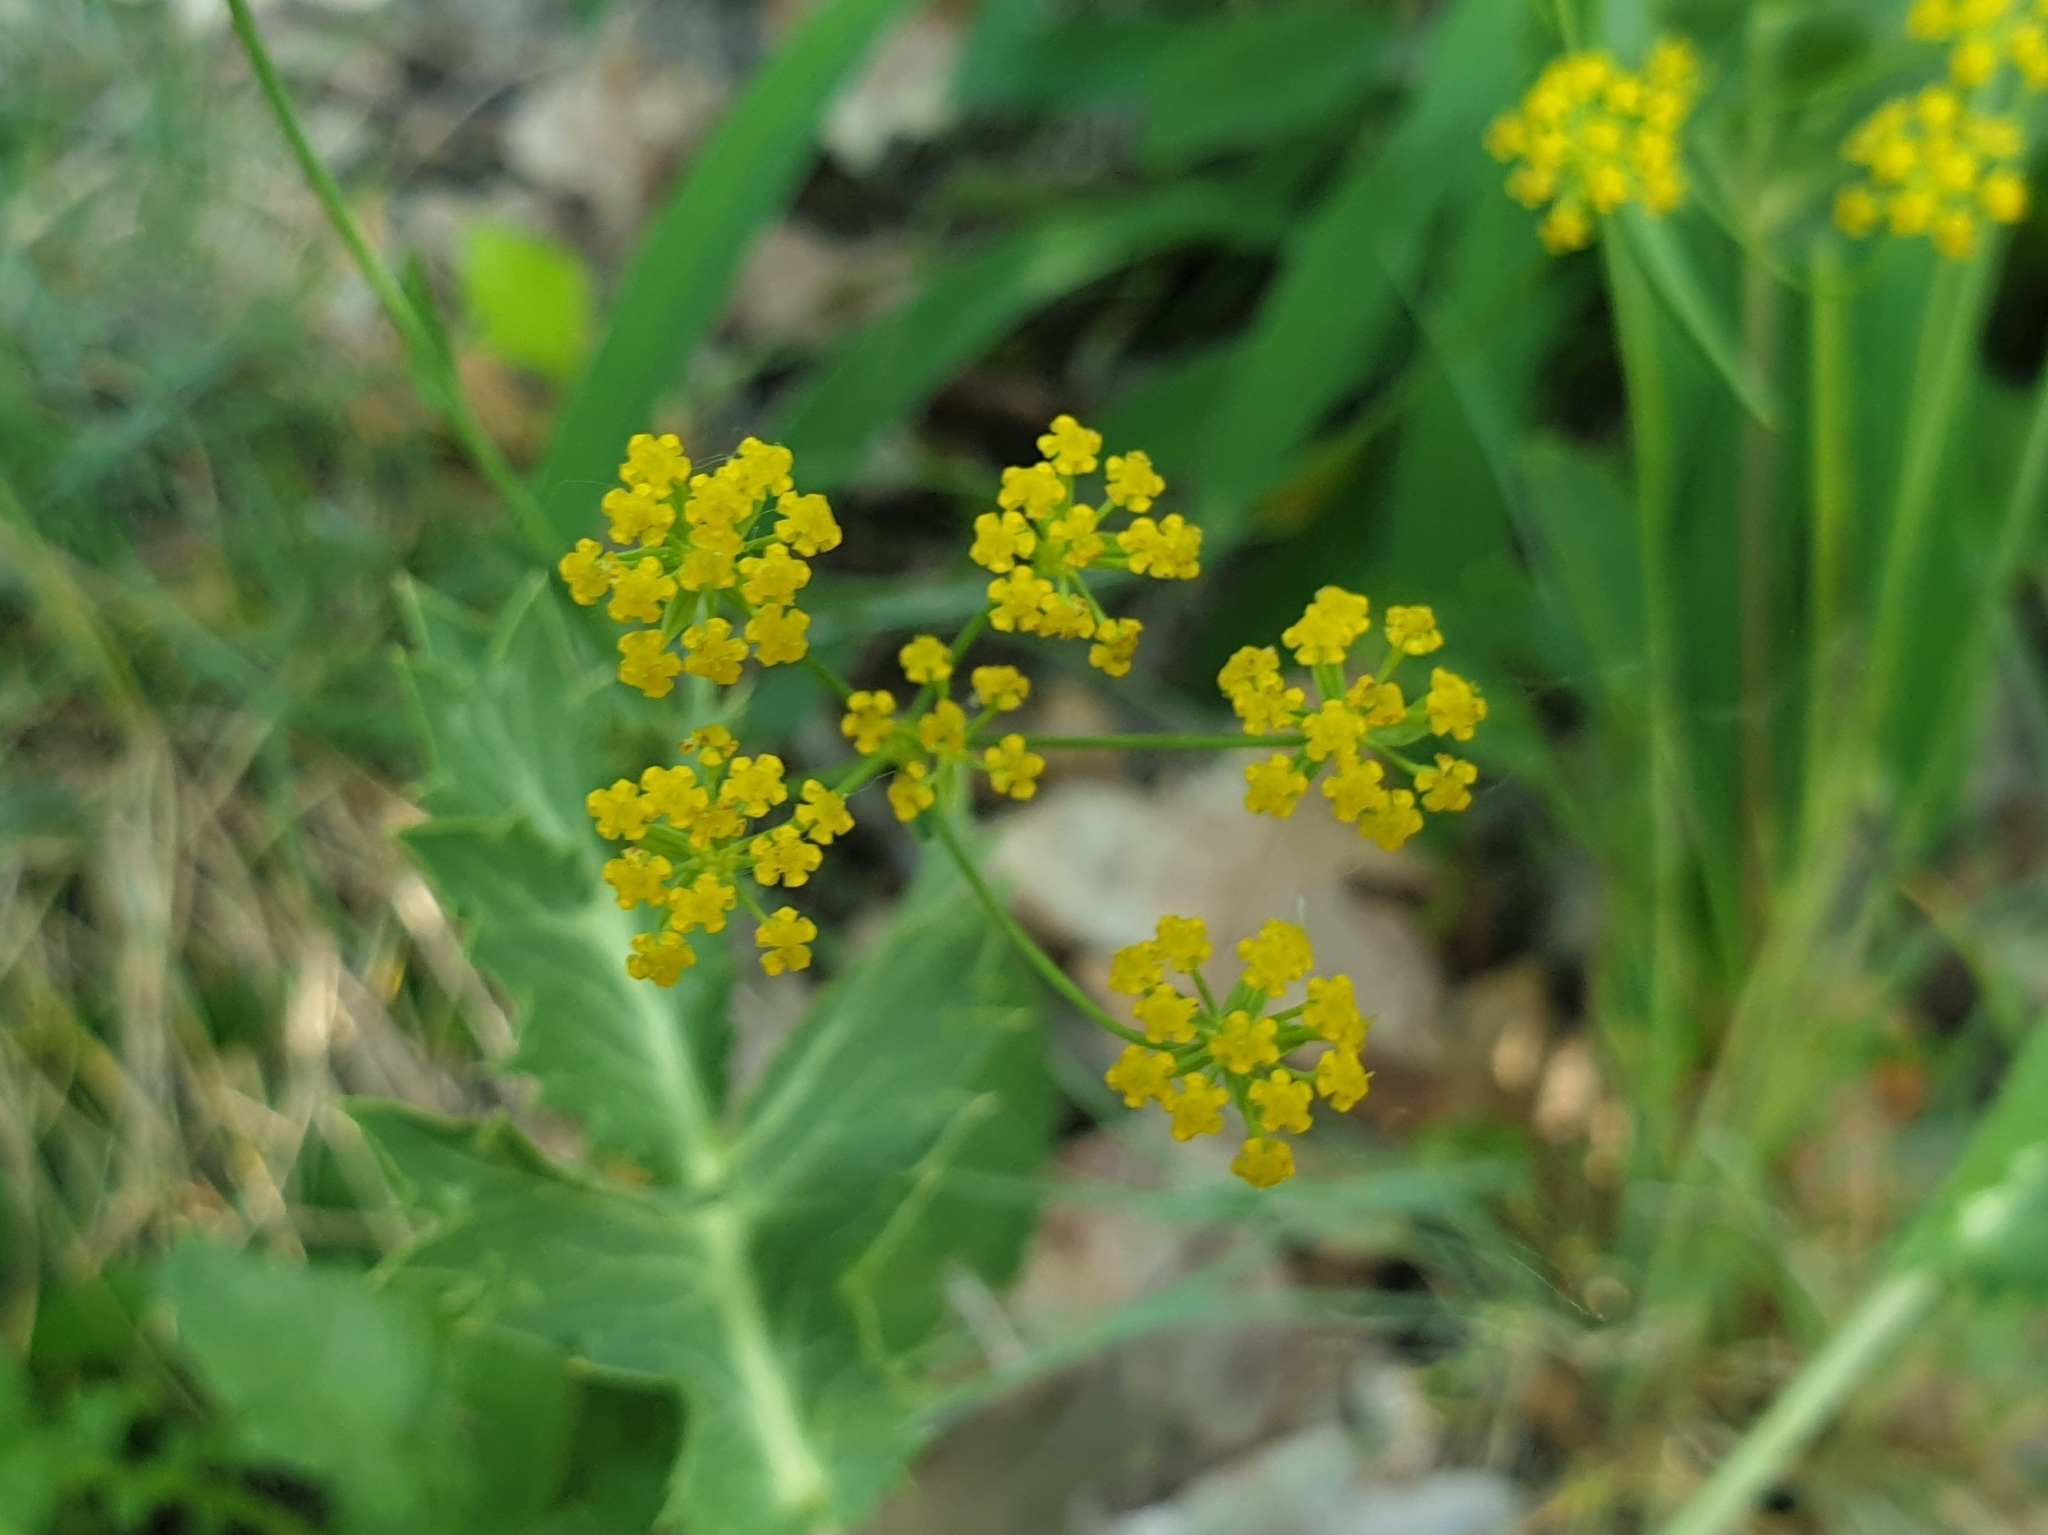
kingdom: Plantae
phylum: Tracheophyta
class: Magnoliopsida
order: Apiales
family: Apiaceae
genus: Bupleurum
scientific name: Bupleurum falcatum
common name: Sickle-leaved hare's-ear
